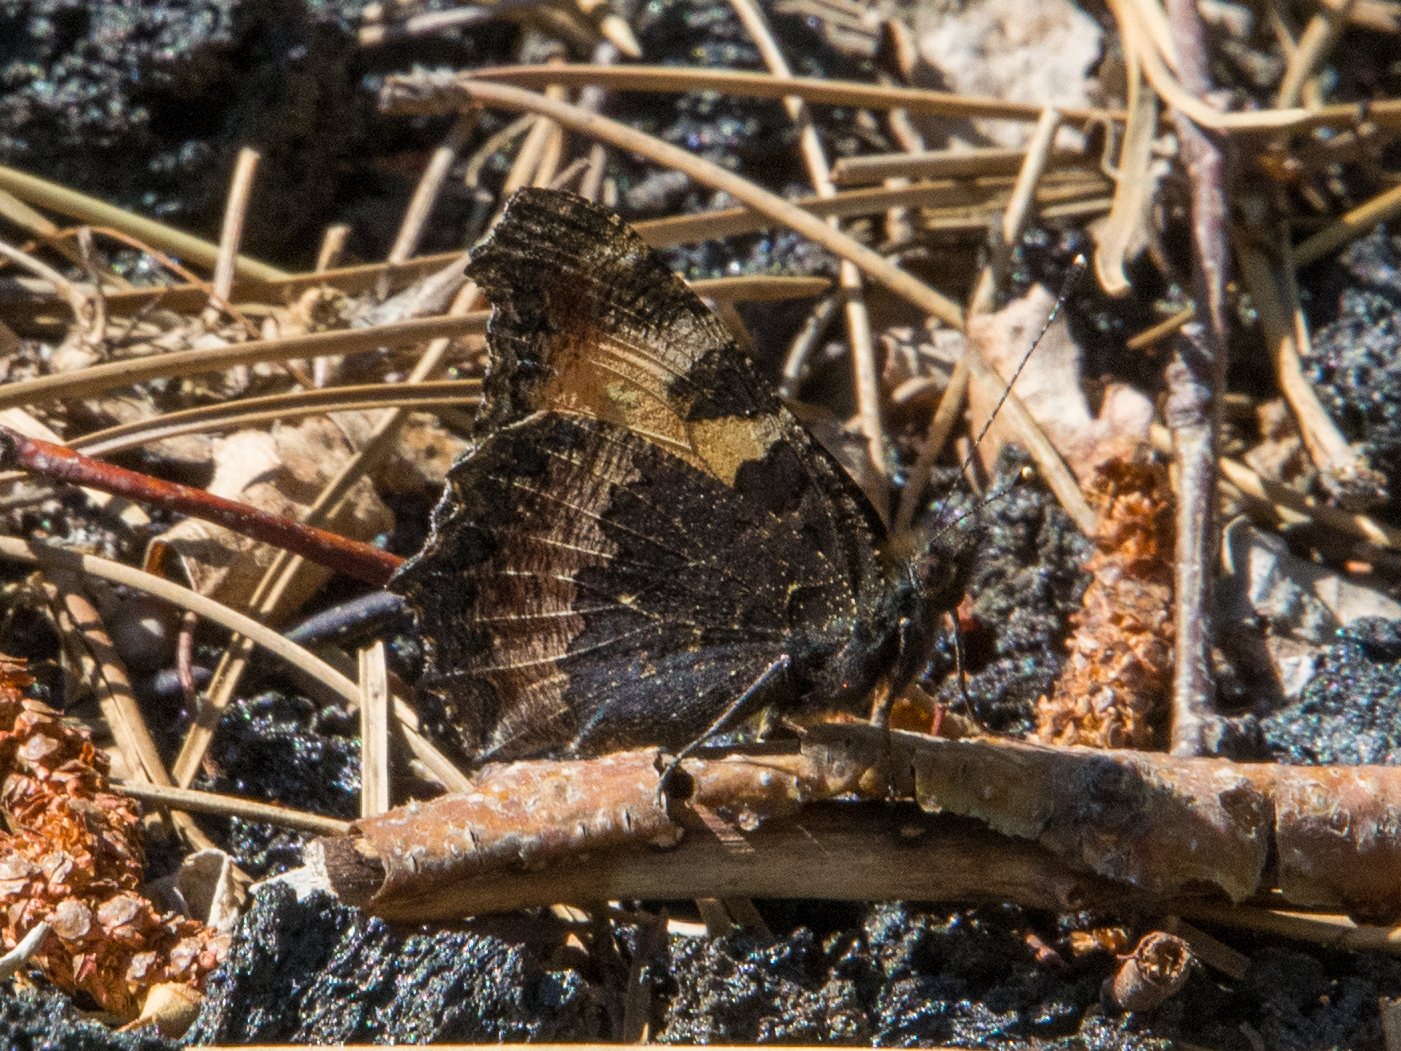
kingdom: Animalia
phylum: Arthropoda
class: Insecta
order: Lepidoptera
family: Nymphalidae
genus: Aglais
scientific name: Aglais urticae
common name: Small tortoiseshell
